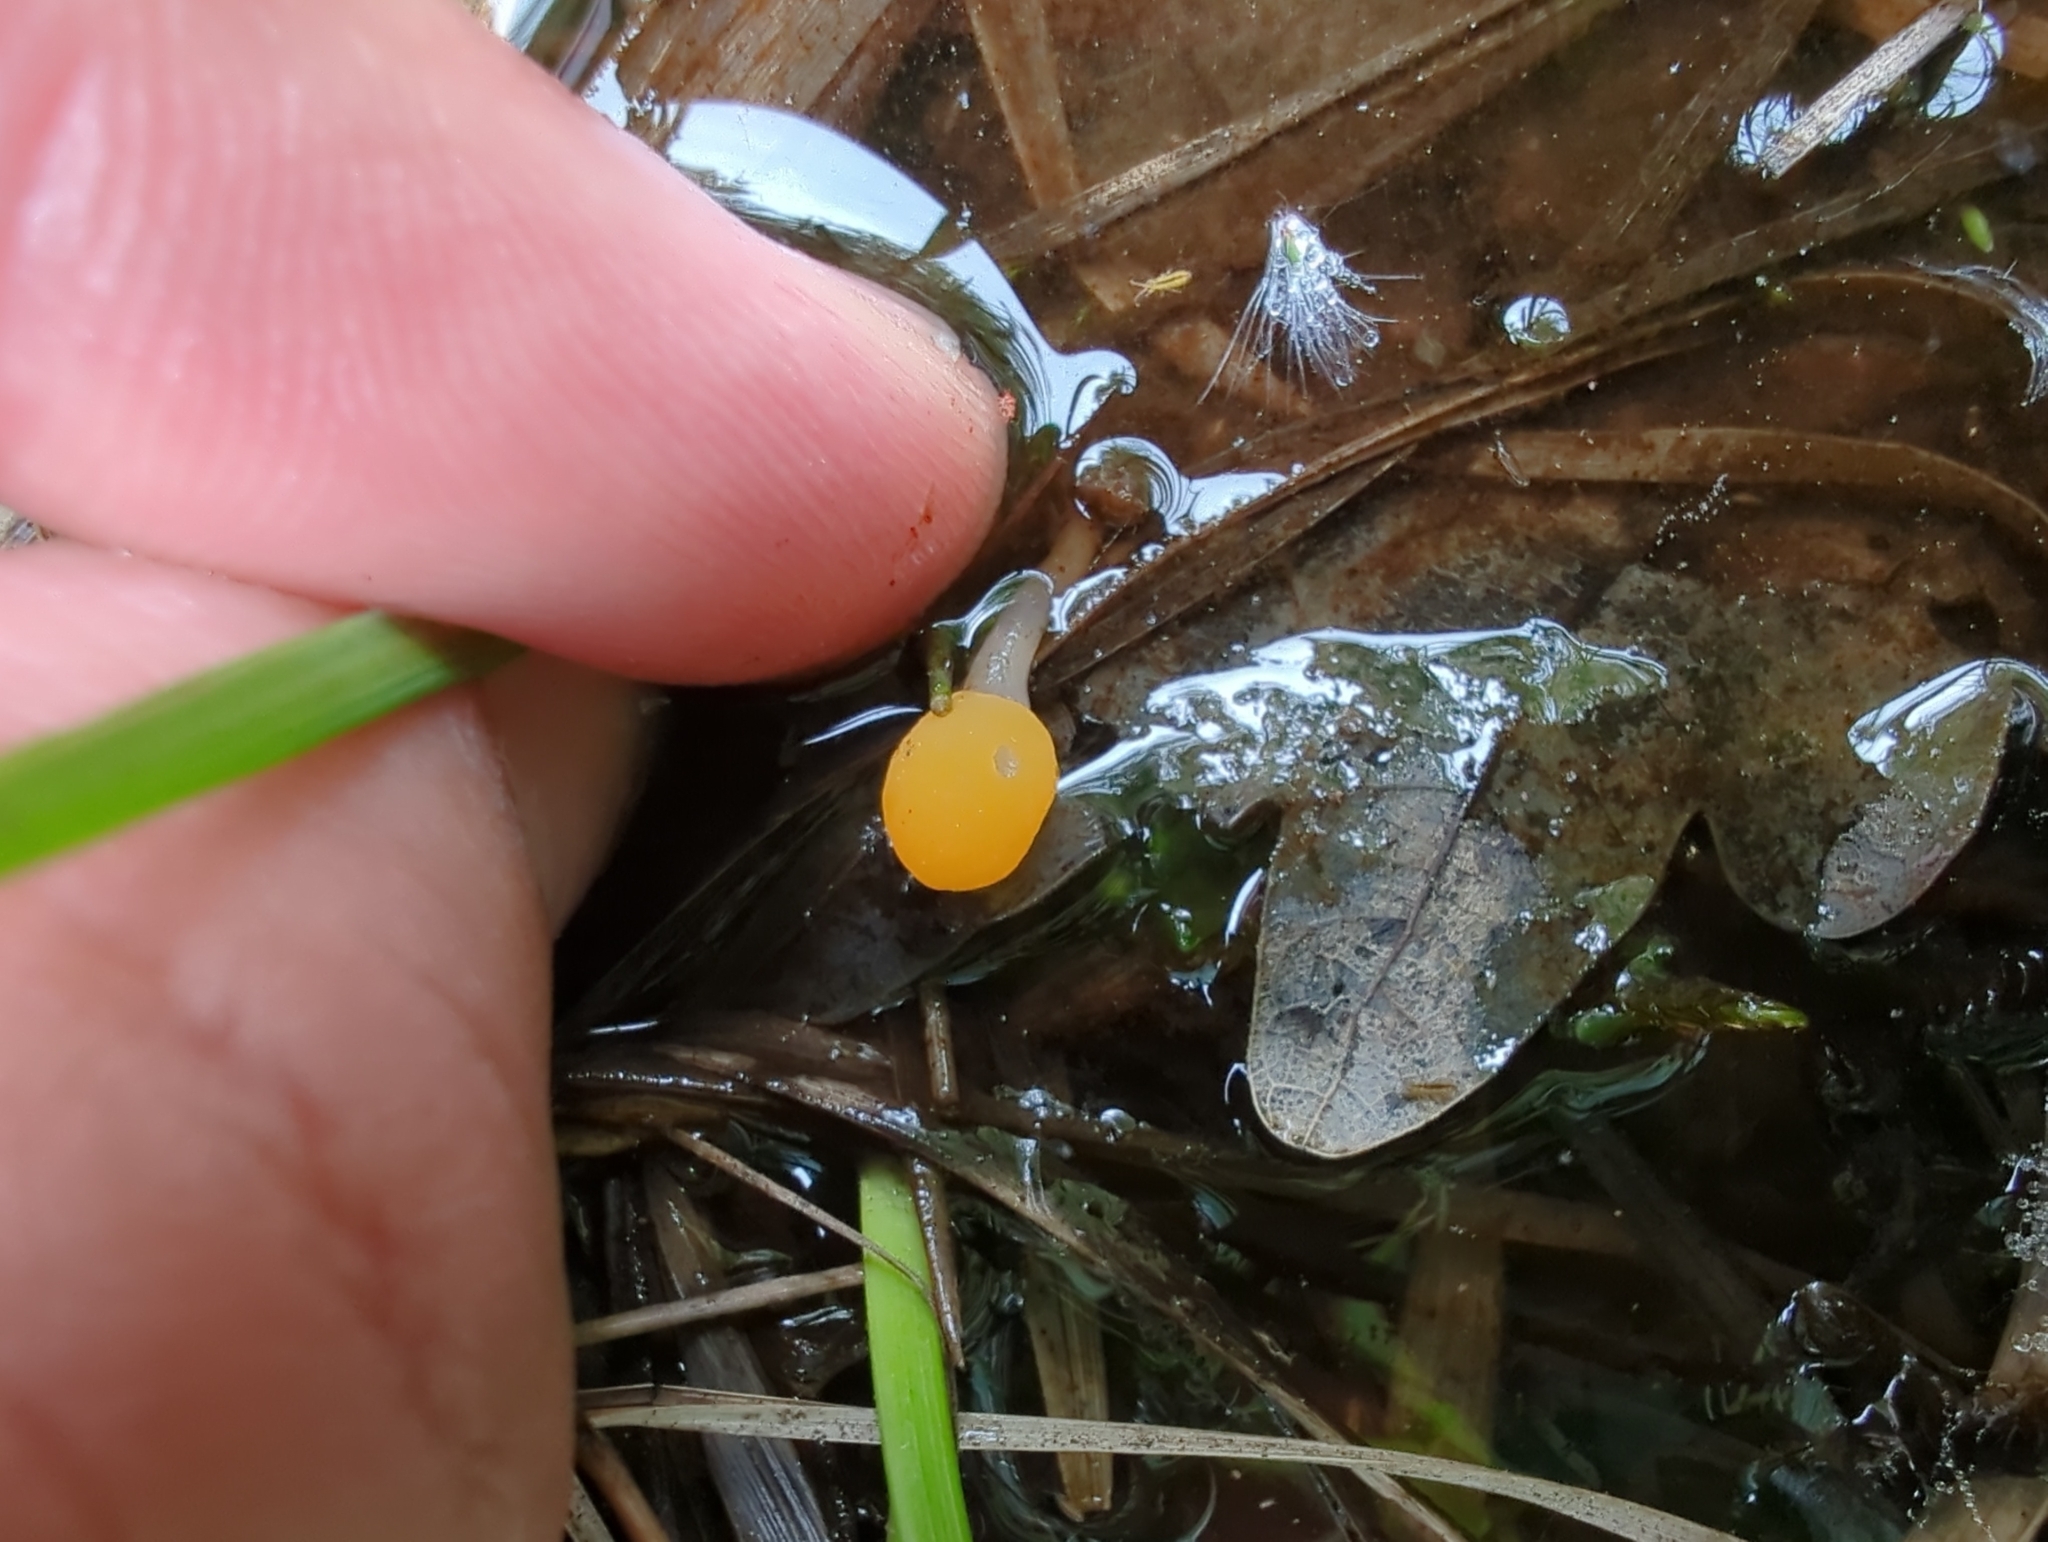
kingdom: Fungi
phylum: Ascomycota
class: Leotiomycetes
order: Helotiales
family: Cenangiaceae
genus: Mitrula
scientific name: Mitrula paludosa
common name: Bog beacon
